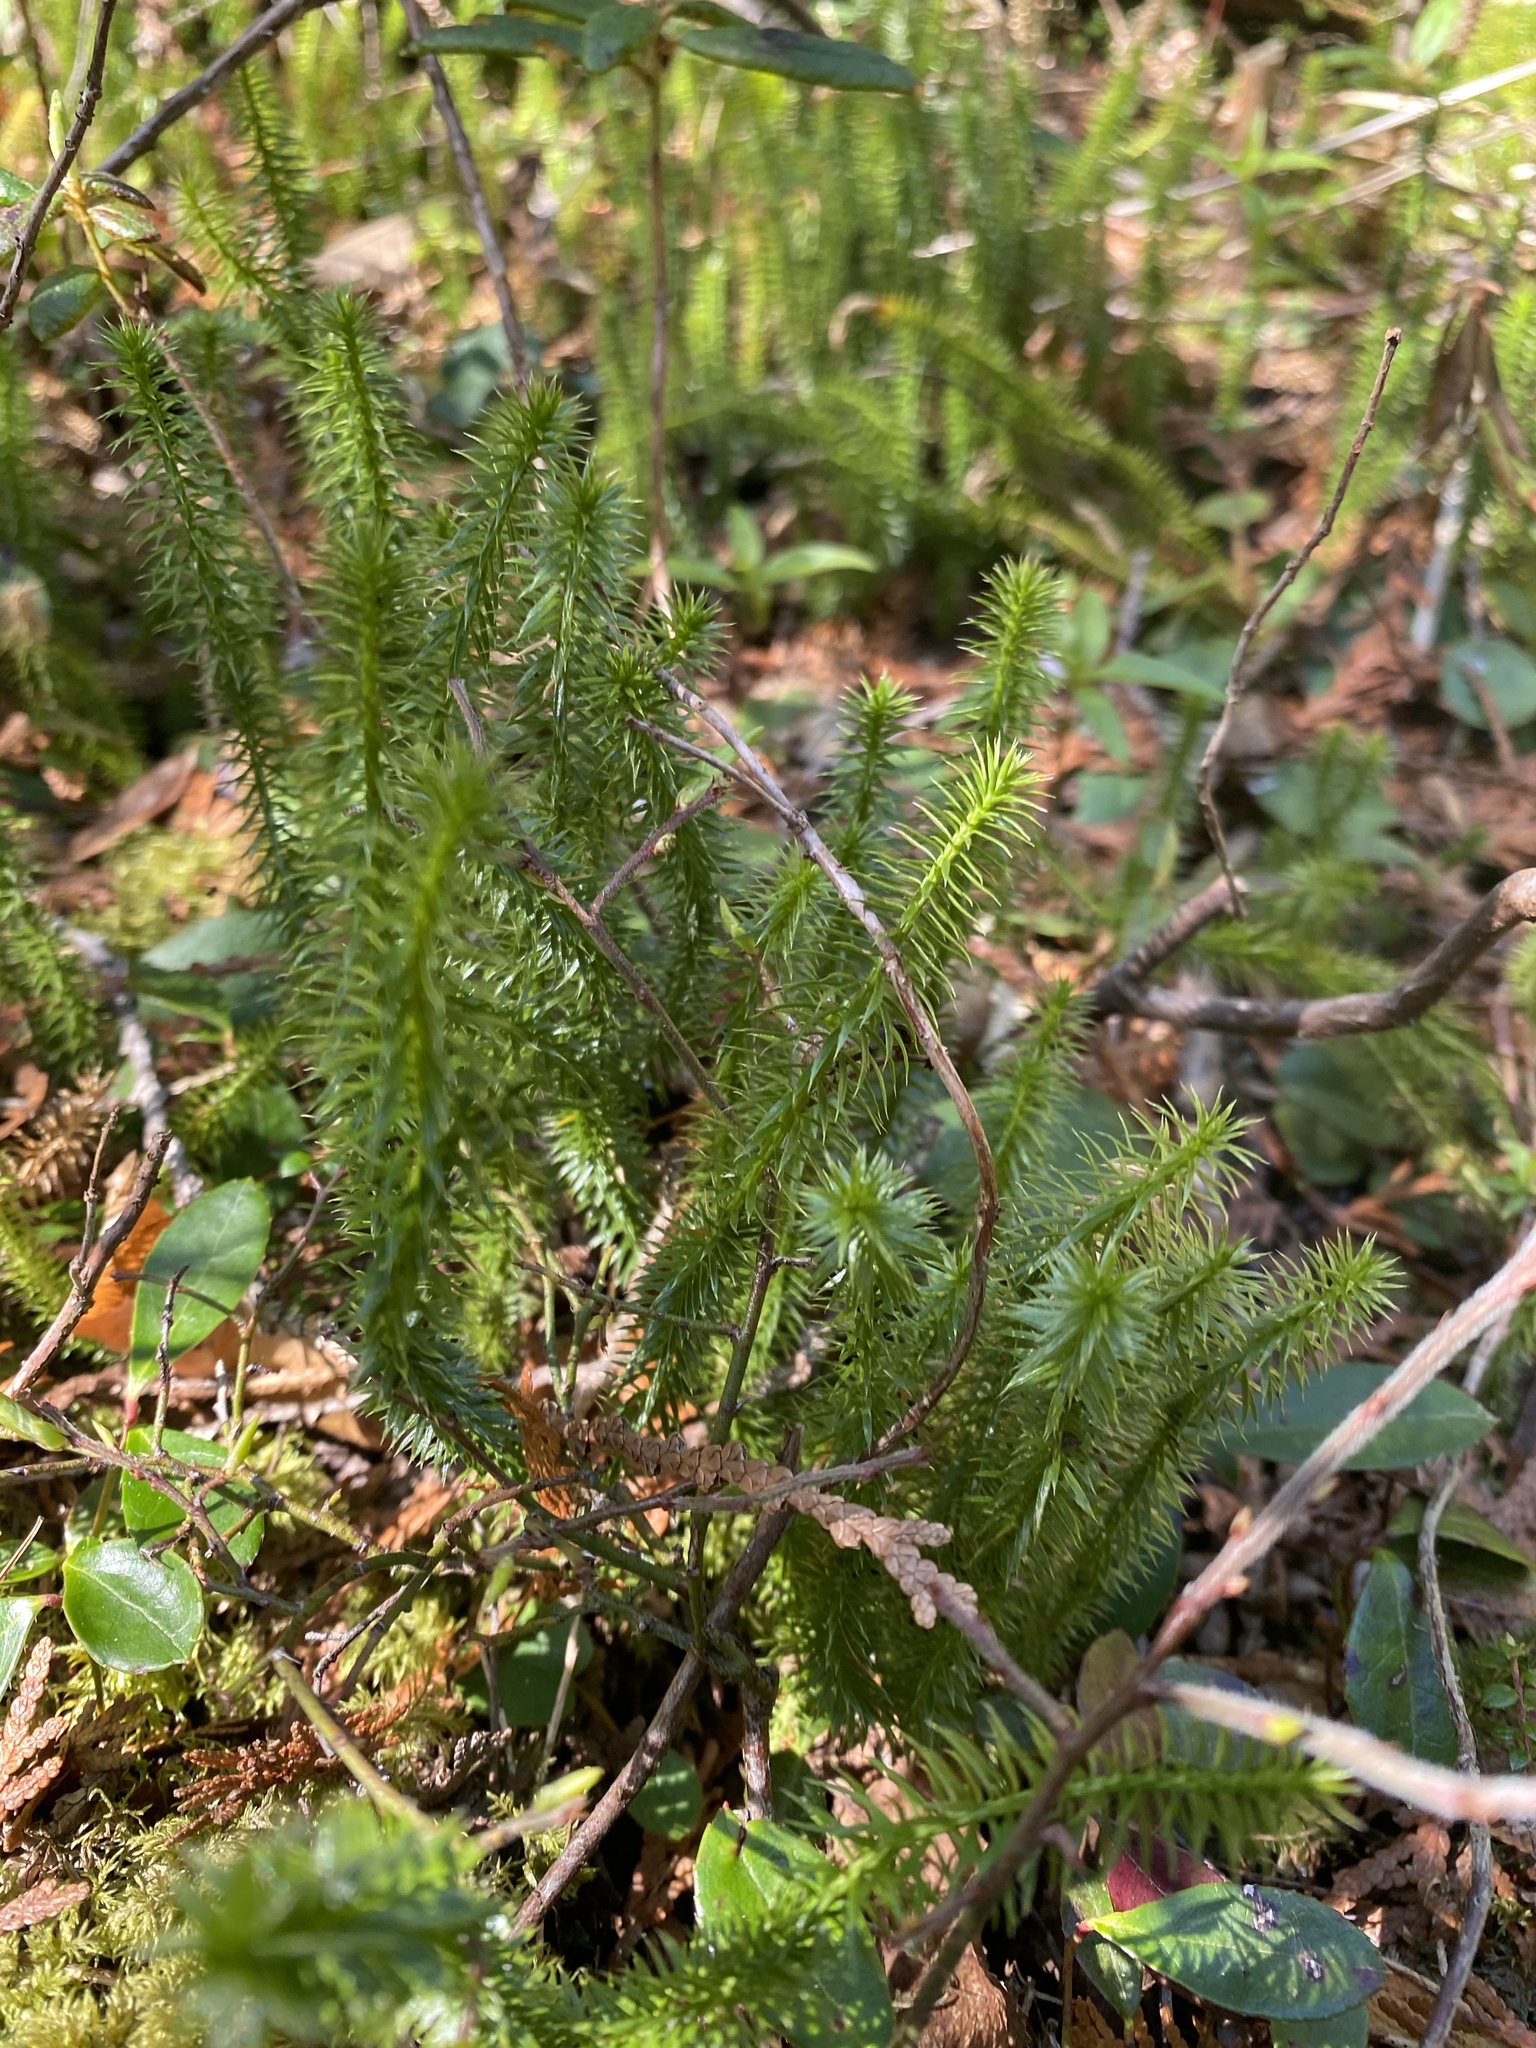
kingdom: Plantae
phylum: Tracheophyta
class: Lycopodiopsida
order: Lycopodiales
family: Lycopodiaceae
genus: Spinulum
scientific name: Spinulum annotinum
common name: Interrupted club-moss
